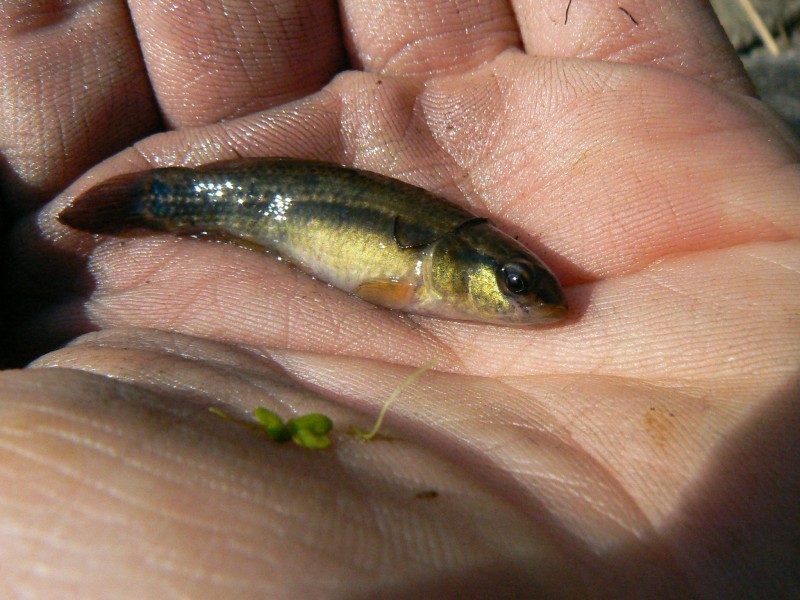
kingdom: Animalia
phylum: Chordata
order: Esociformes
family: Umbridae
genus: Umbra
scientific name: Umbra pygmaea
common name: Eastern mudminnow
